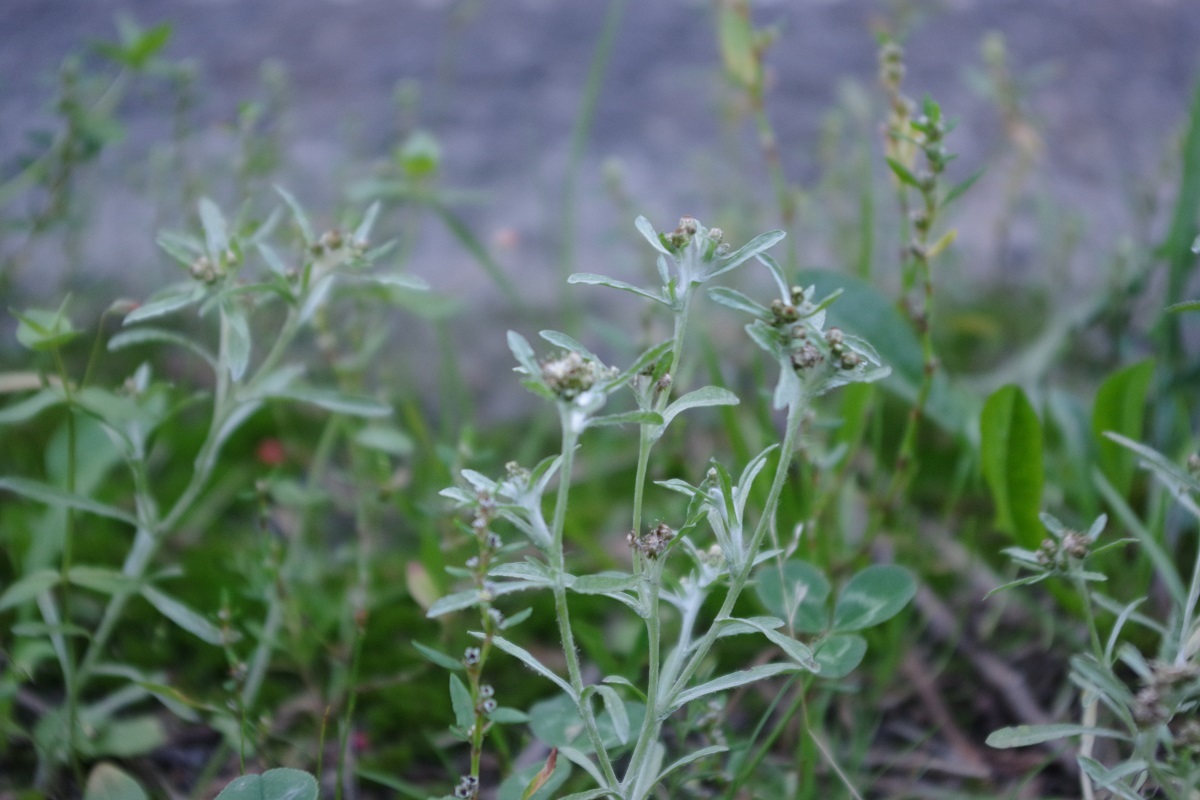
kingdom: Plantae
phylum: Tracheophyta
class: Magnoliopsida
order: Asterales
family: Asteraceae
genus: Gnaphalium
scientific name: Gnaphalium uliginosum
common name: Marsh cudweed
